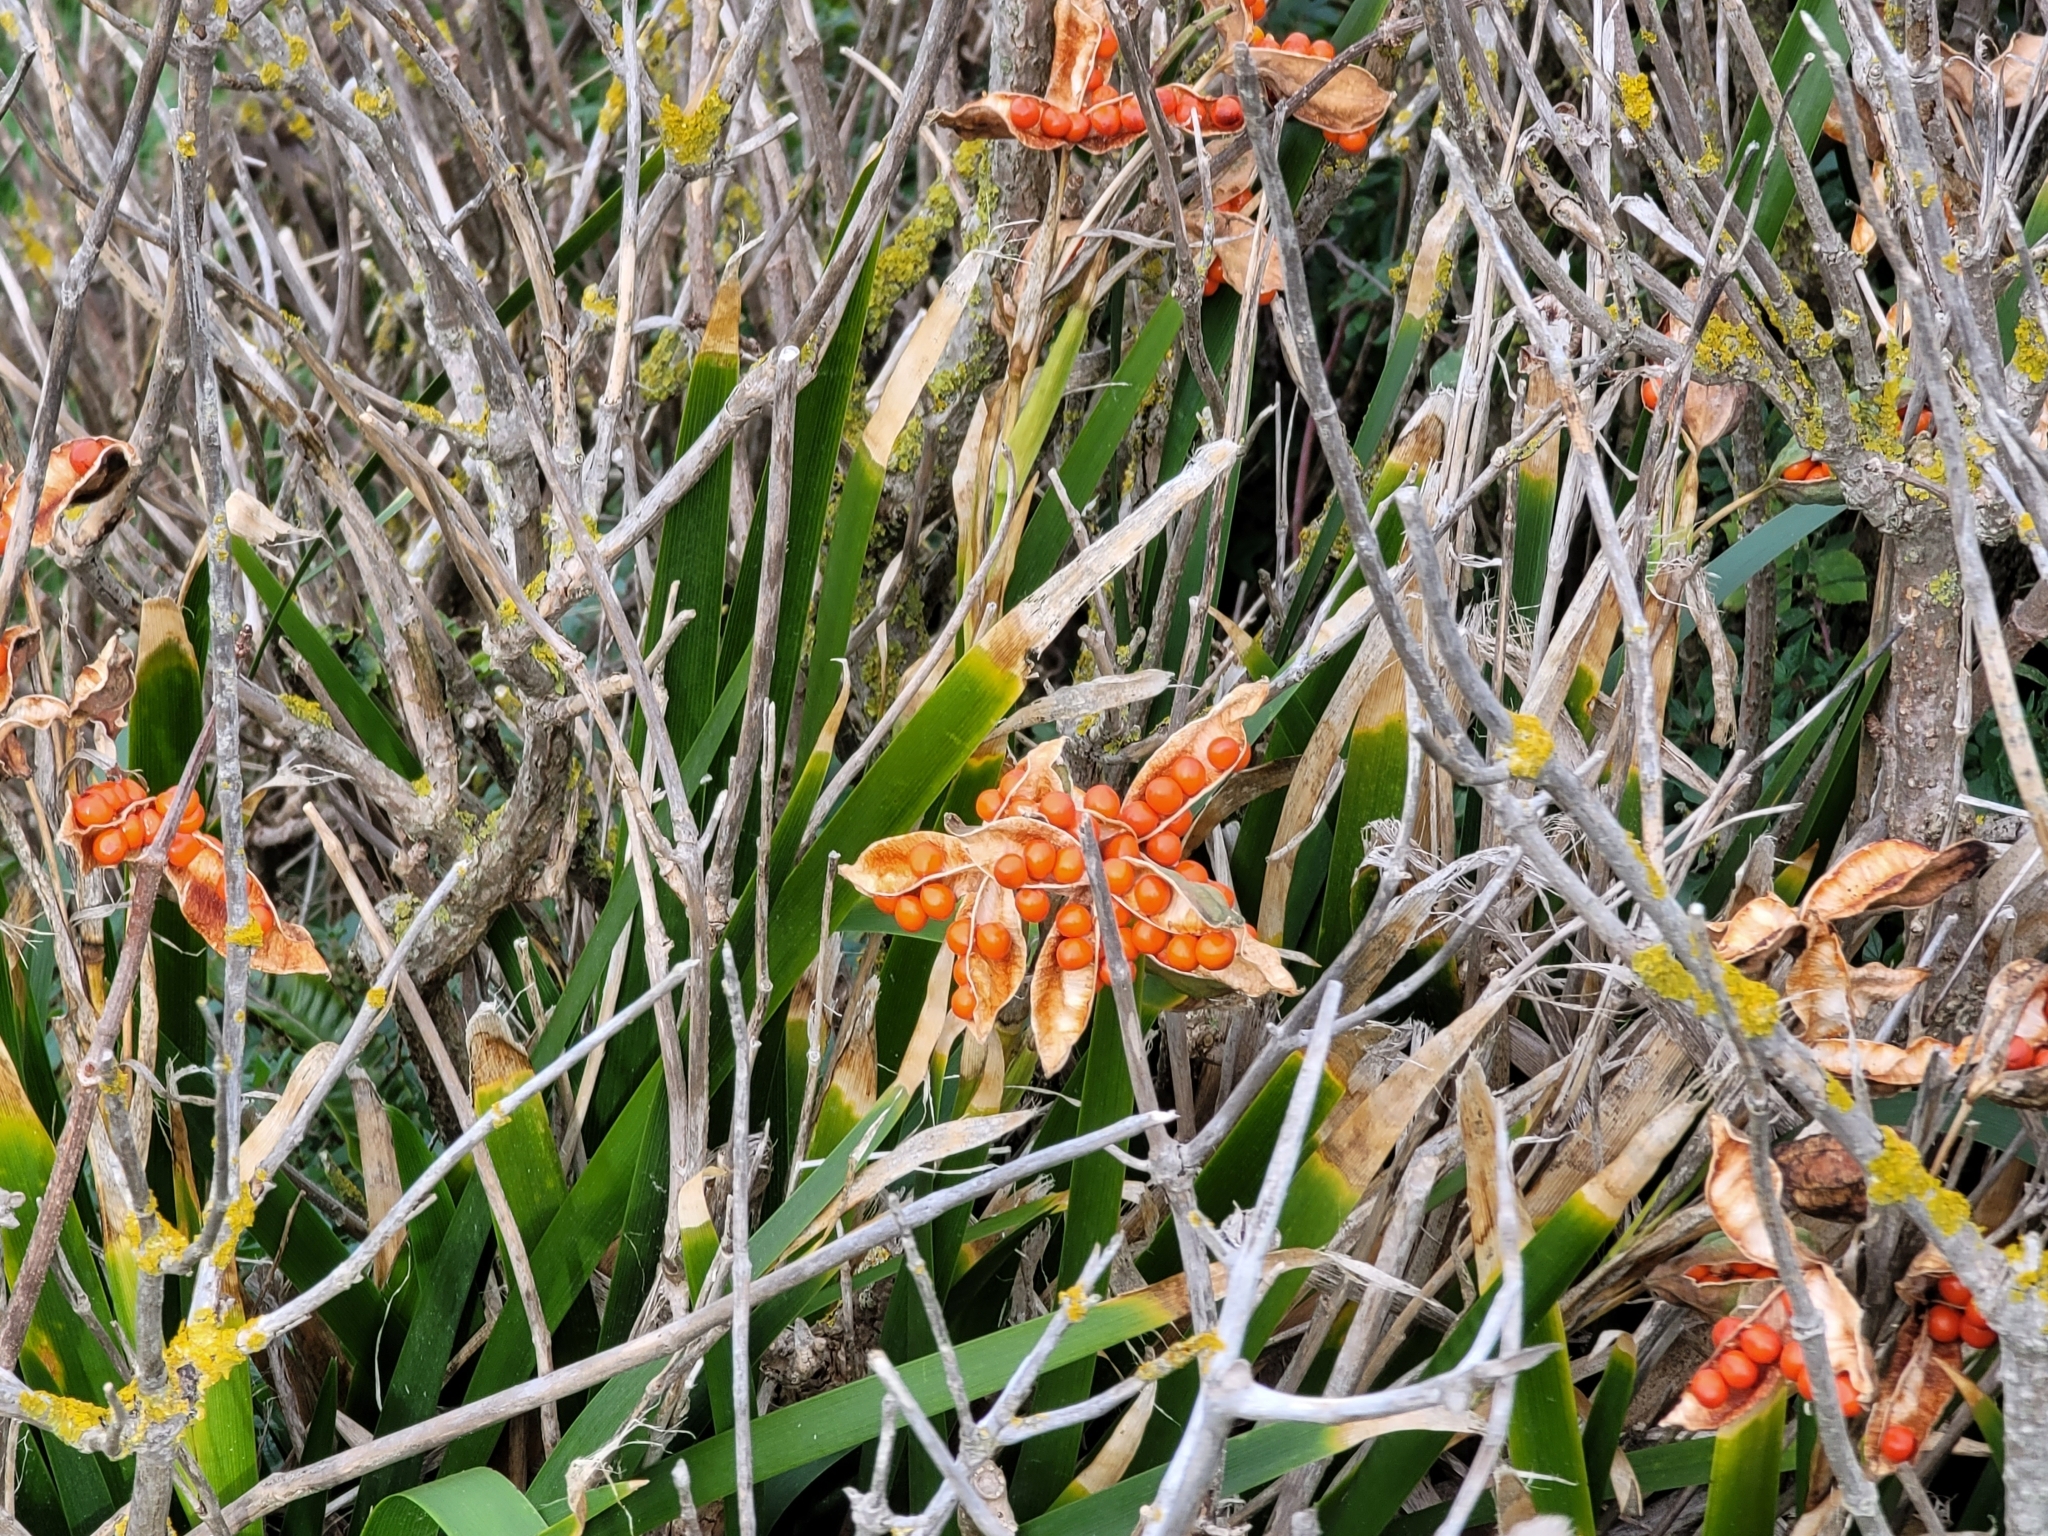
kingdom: Plantae
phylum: Tracheophyta
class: Liliopsida
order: Asparagales
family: Iridaceae
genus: Iris
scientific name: Iris foetidissima
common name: Stinking iris
